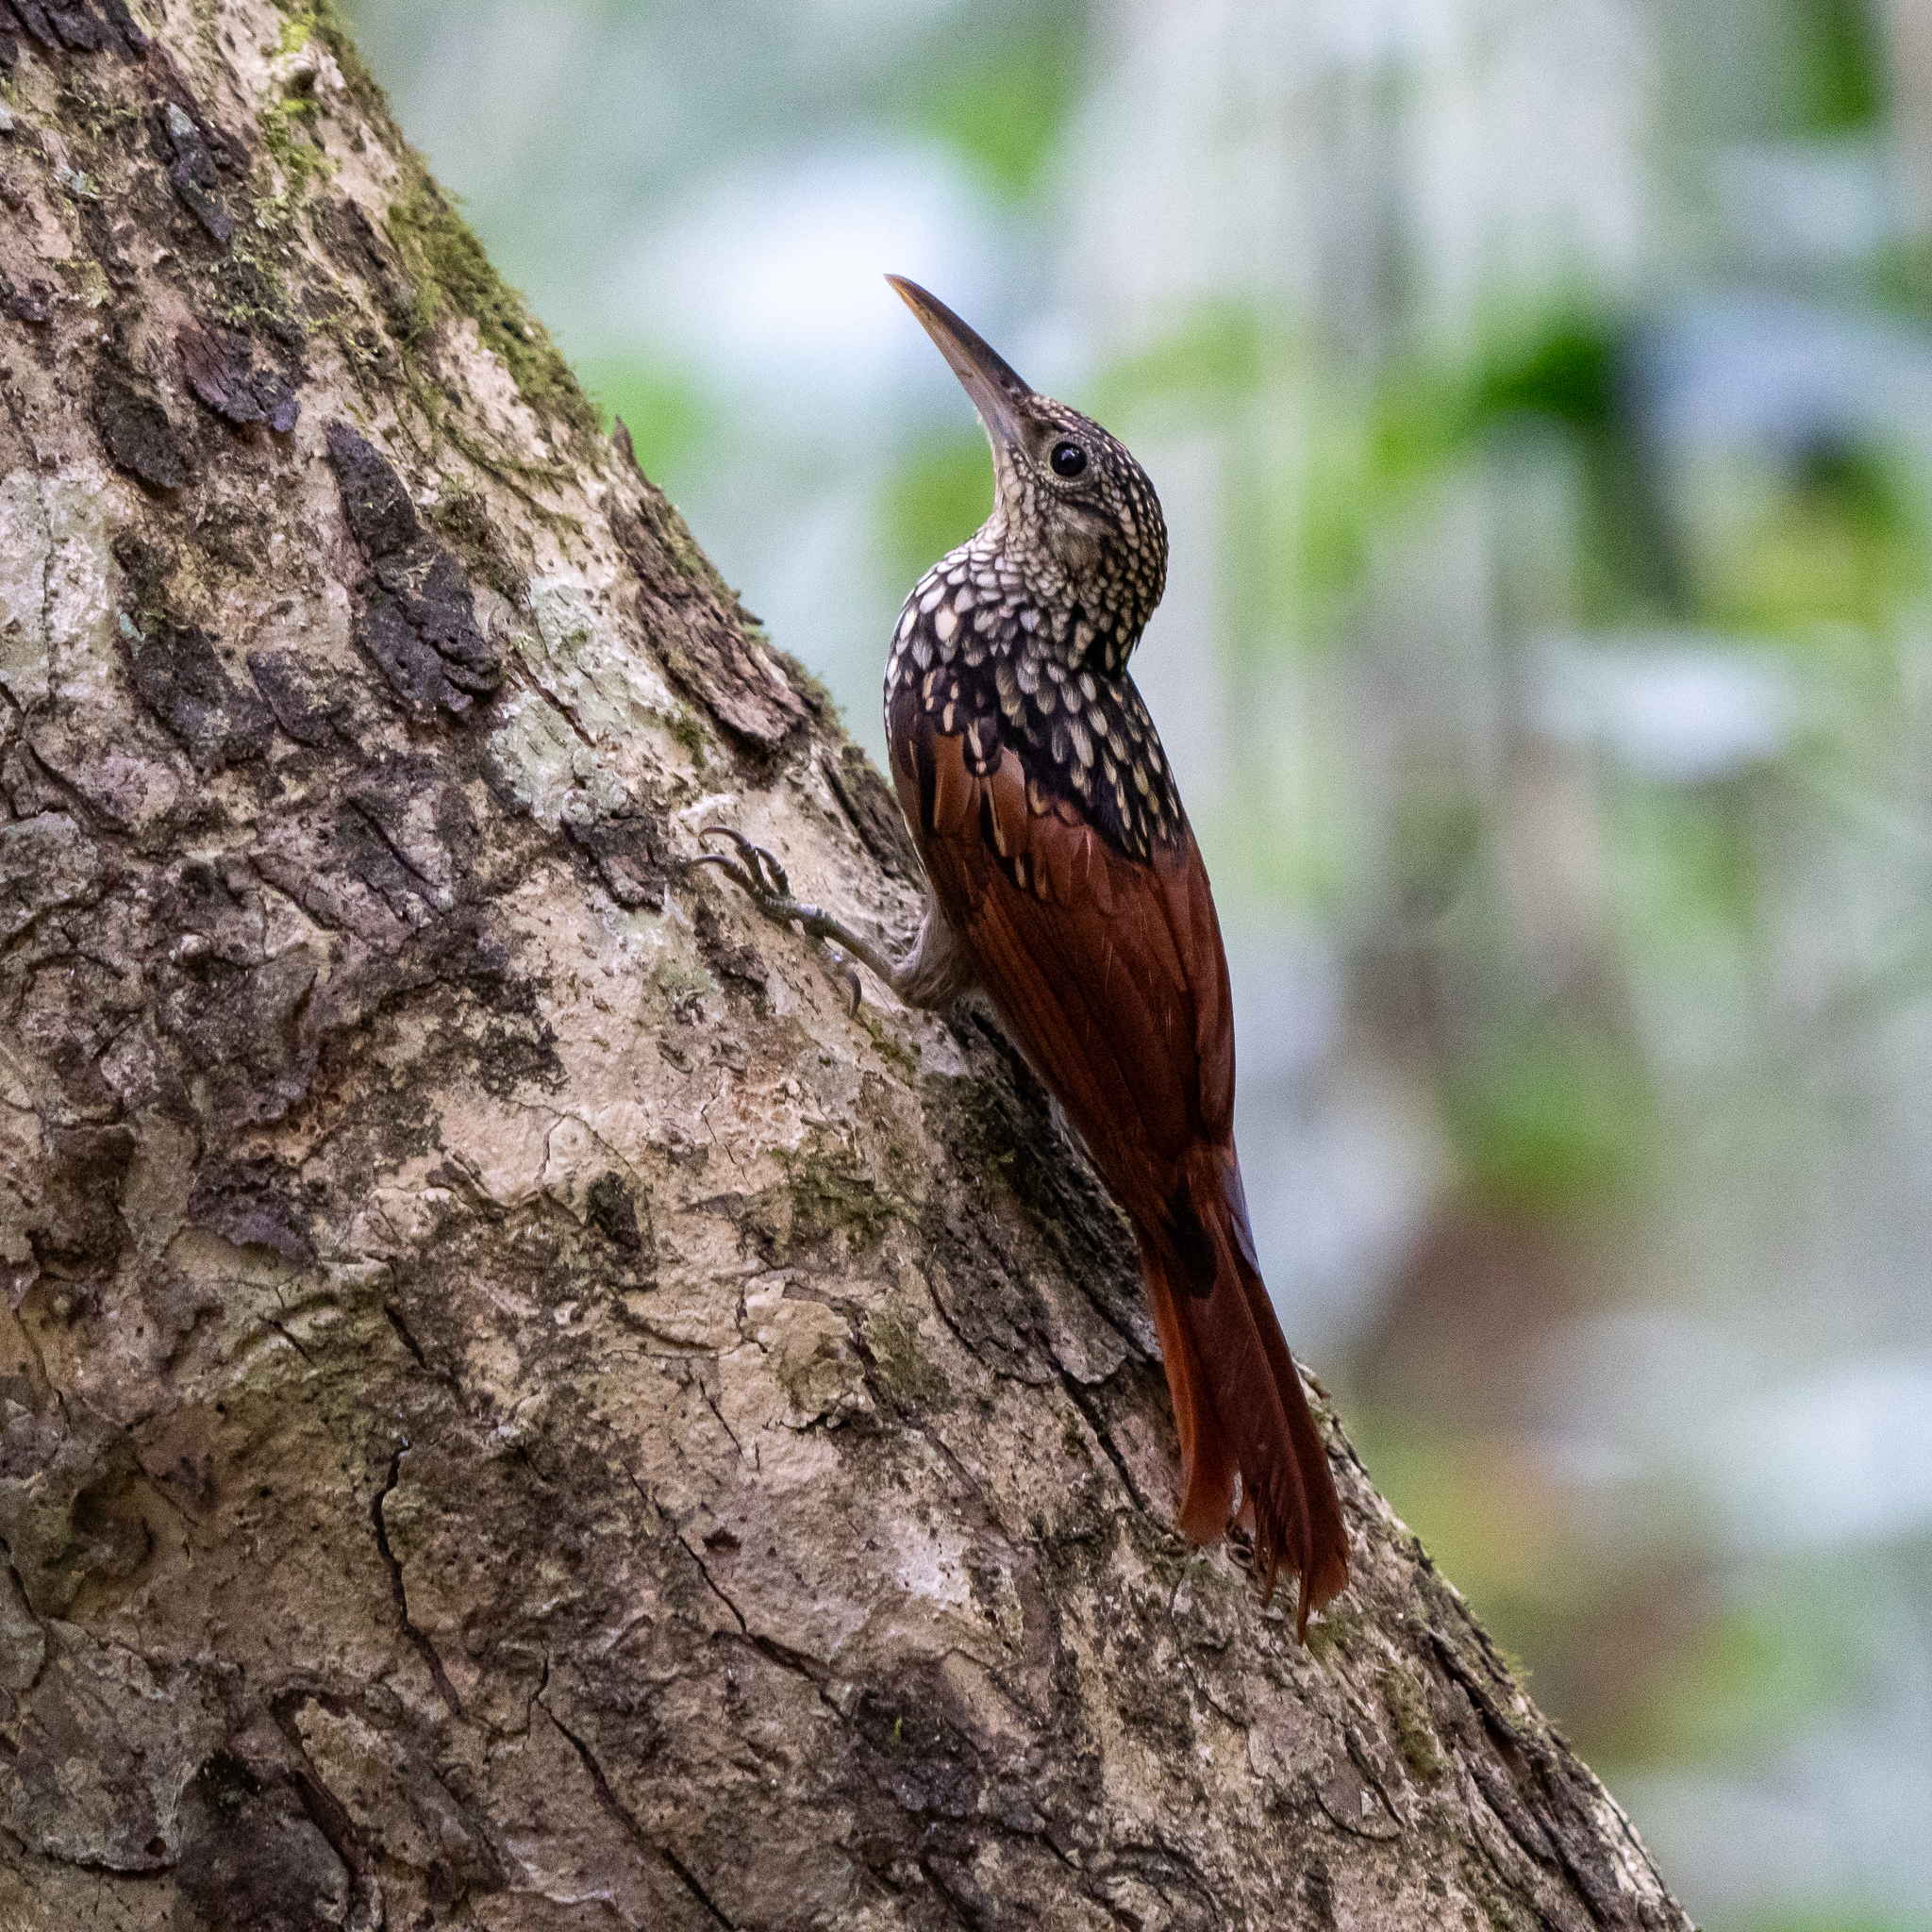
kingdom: Animalia
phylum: Chordata
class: Aves
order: Passeriformes
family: Furnariidae
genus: Xiphorhynchus
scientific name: Xiphorhynchus lachrymosus
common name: Black-striped woodcreeper
